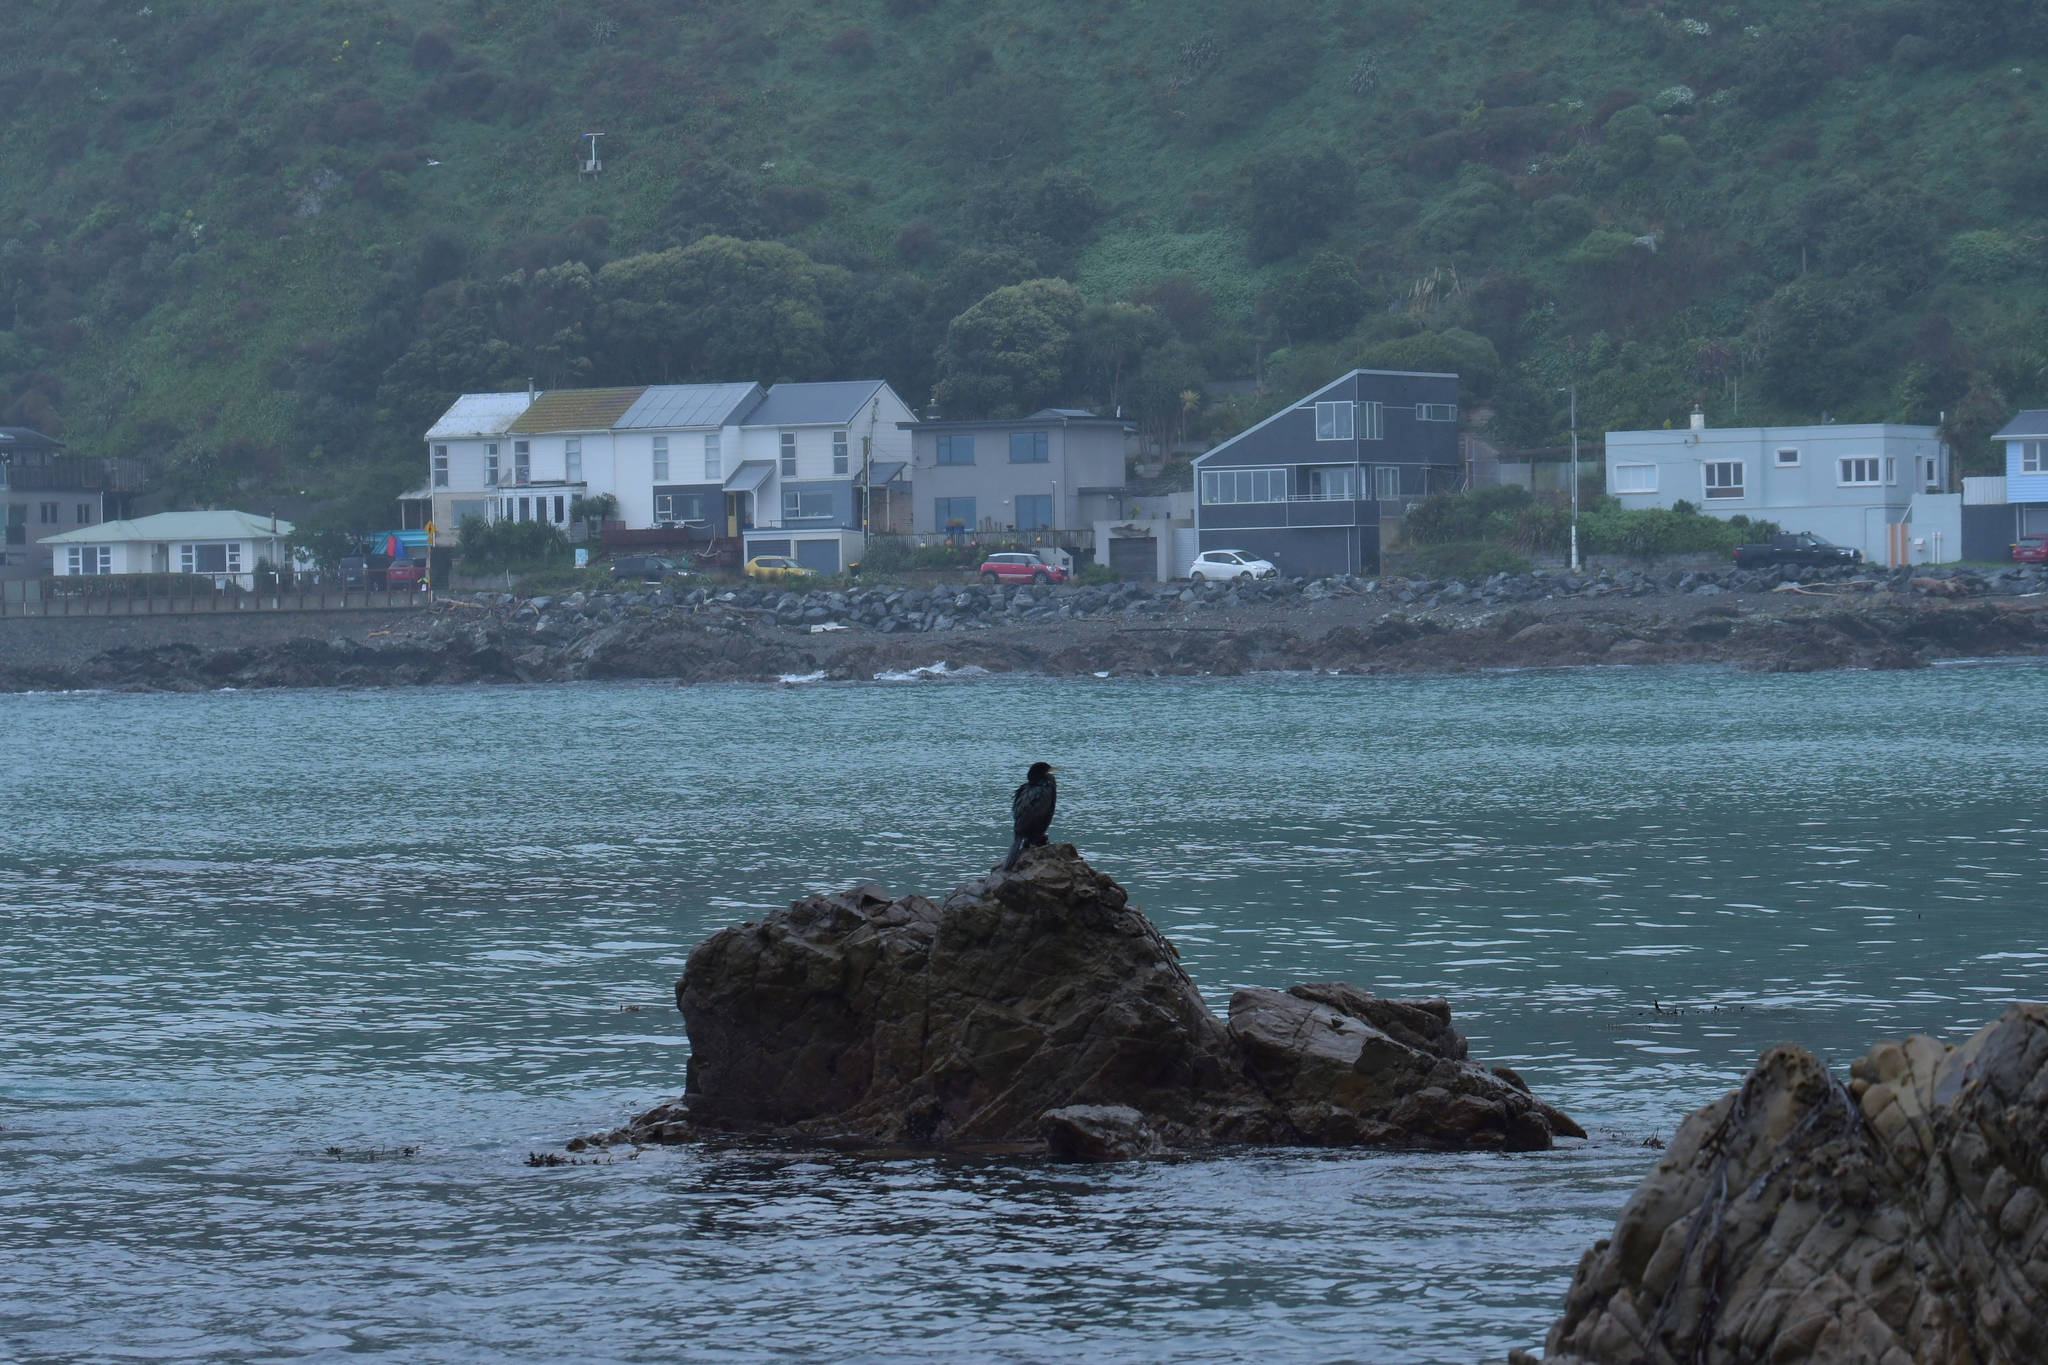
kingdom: Animalia
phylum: Chordata
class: Aves
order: Suliformes
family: Phalacrocoracidae
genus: Microcarbo
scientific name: Microcarbo melanoleucos
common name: Little pied cormorant
